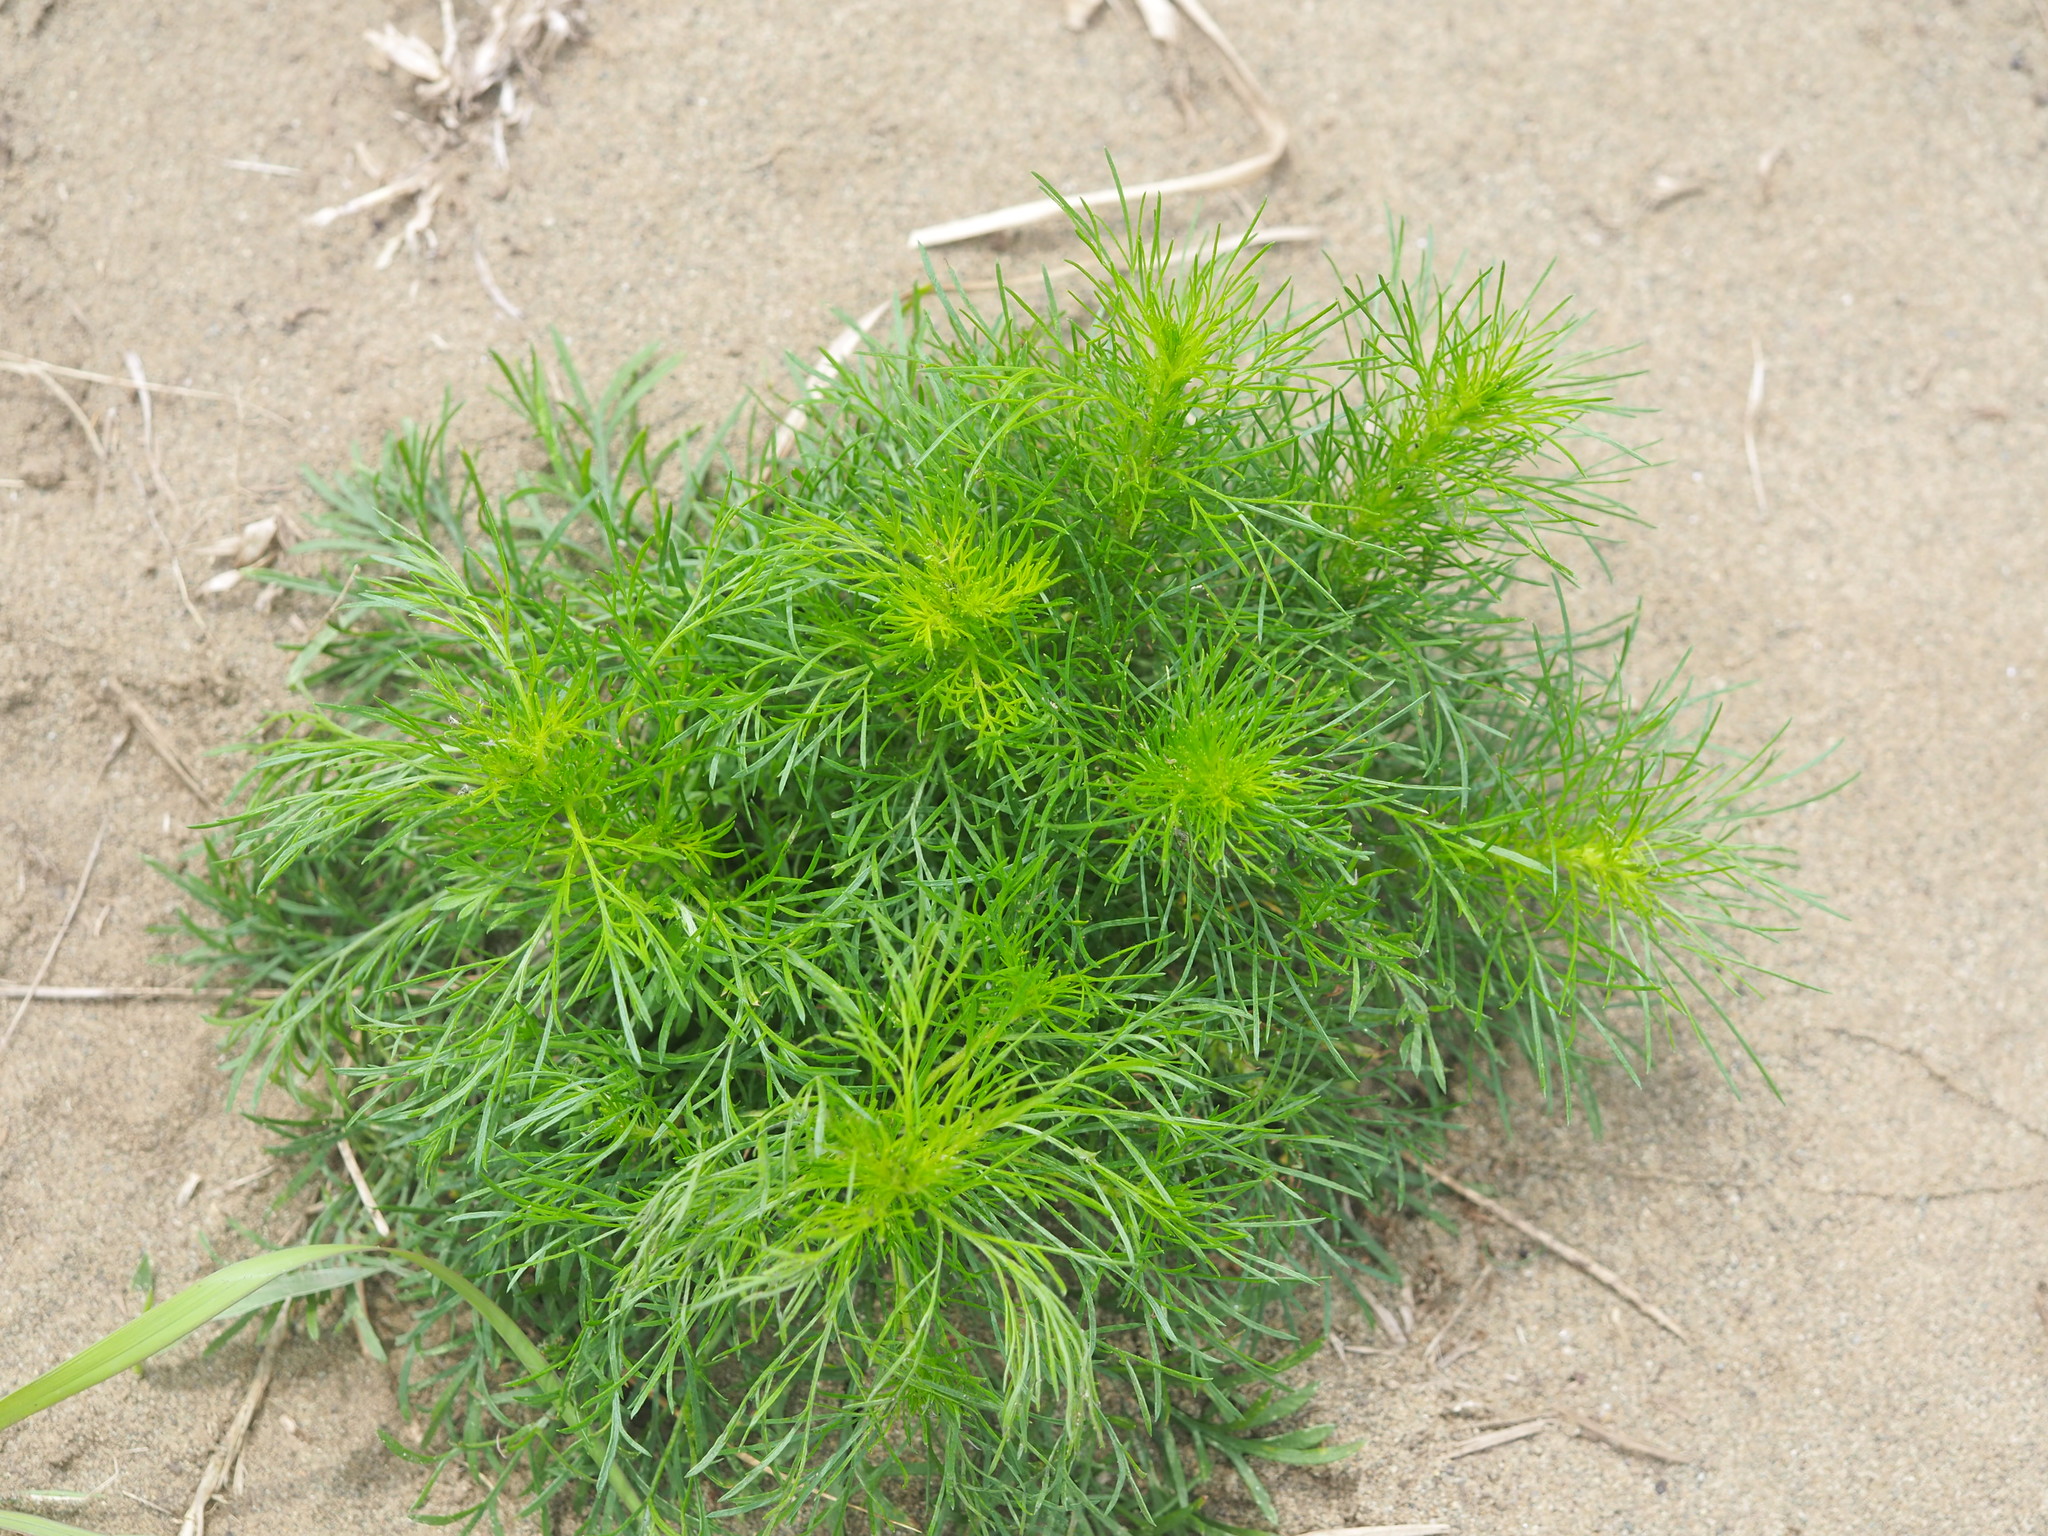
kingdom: Plantae
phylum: Tracheophyta
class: Magnoliopsida
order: Asterales
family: Asteraceae
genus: Artemisia
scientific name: Artemisia capillaris
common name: Yin-chen wormwood
